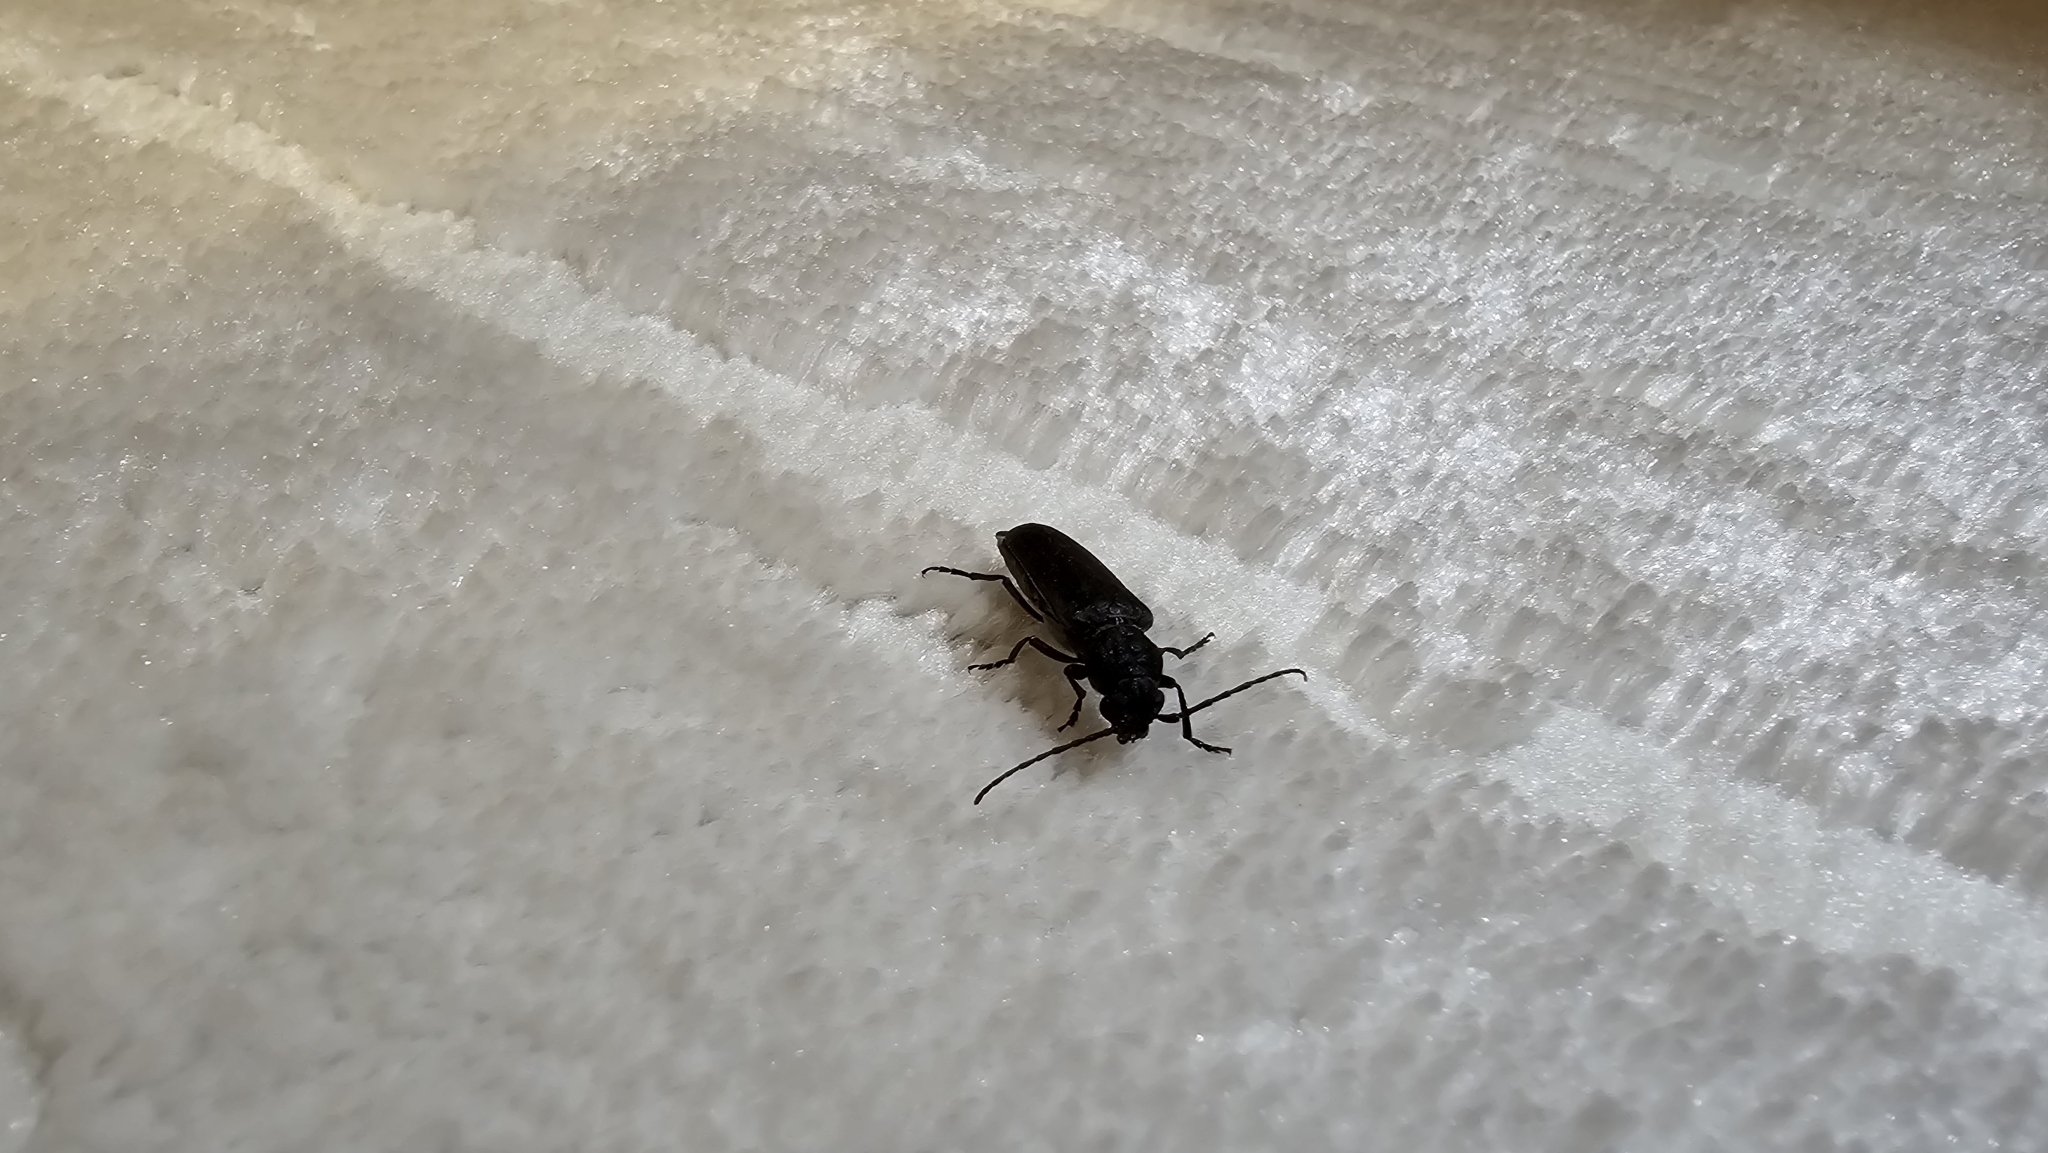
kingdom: Animalia
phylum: Arthropoda
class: Insecta
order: Coleoptera
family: Cerambycidae
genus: Arhopalus
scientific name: Arhopalus ferus
